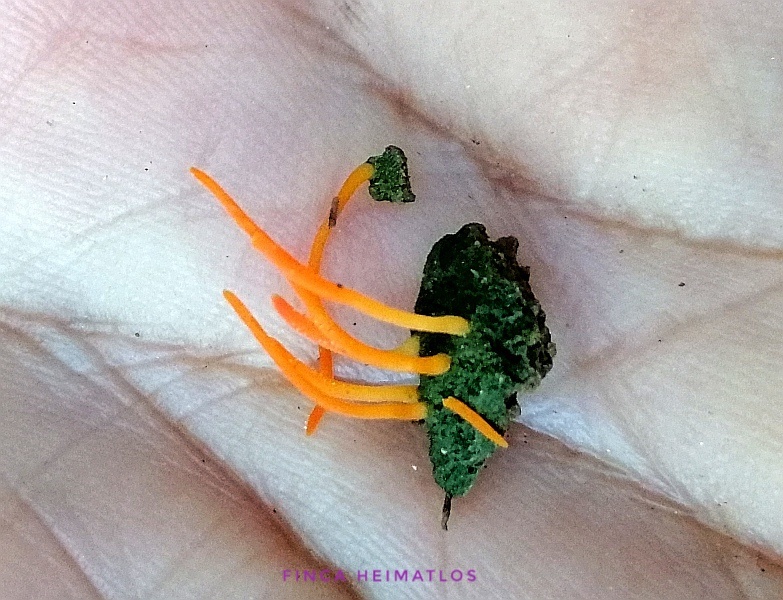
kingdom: Fungi
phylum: Basidiomycota
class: Agaricomycetes
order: Lepidostromatales
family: Lepidostromataceae
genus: Sulzbacheromyces
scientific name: Sulzbacheromyces caatingae
